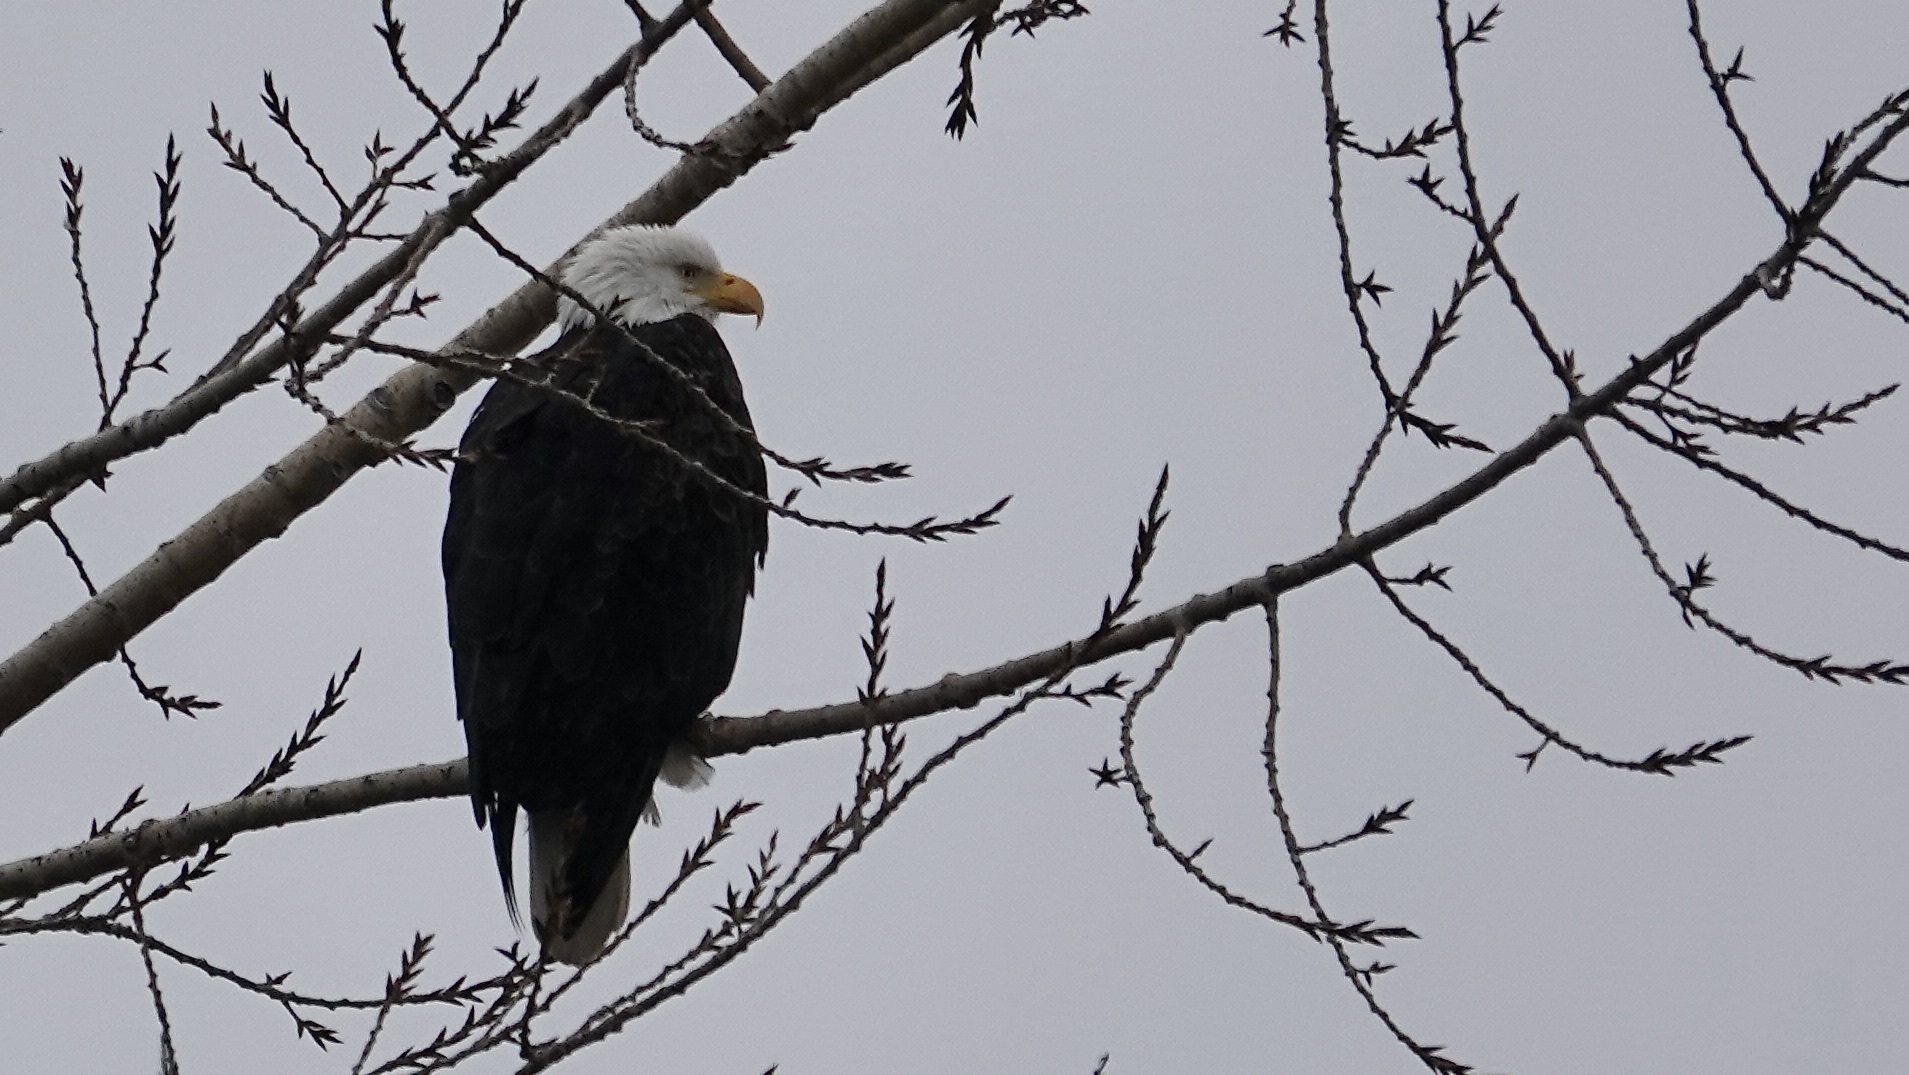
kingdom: Animalia
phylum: Chordata
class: Aves
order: Accipitriformes
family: Accipitridae
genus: Haliaeetus
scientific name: Haliaeetus leucocephalus
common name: Bald eagle
